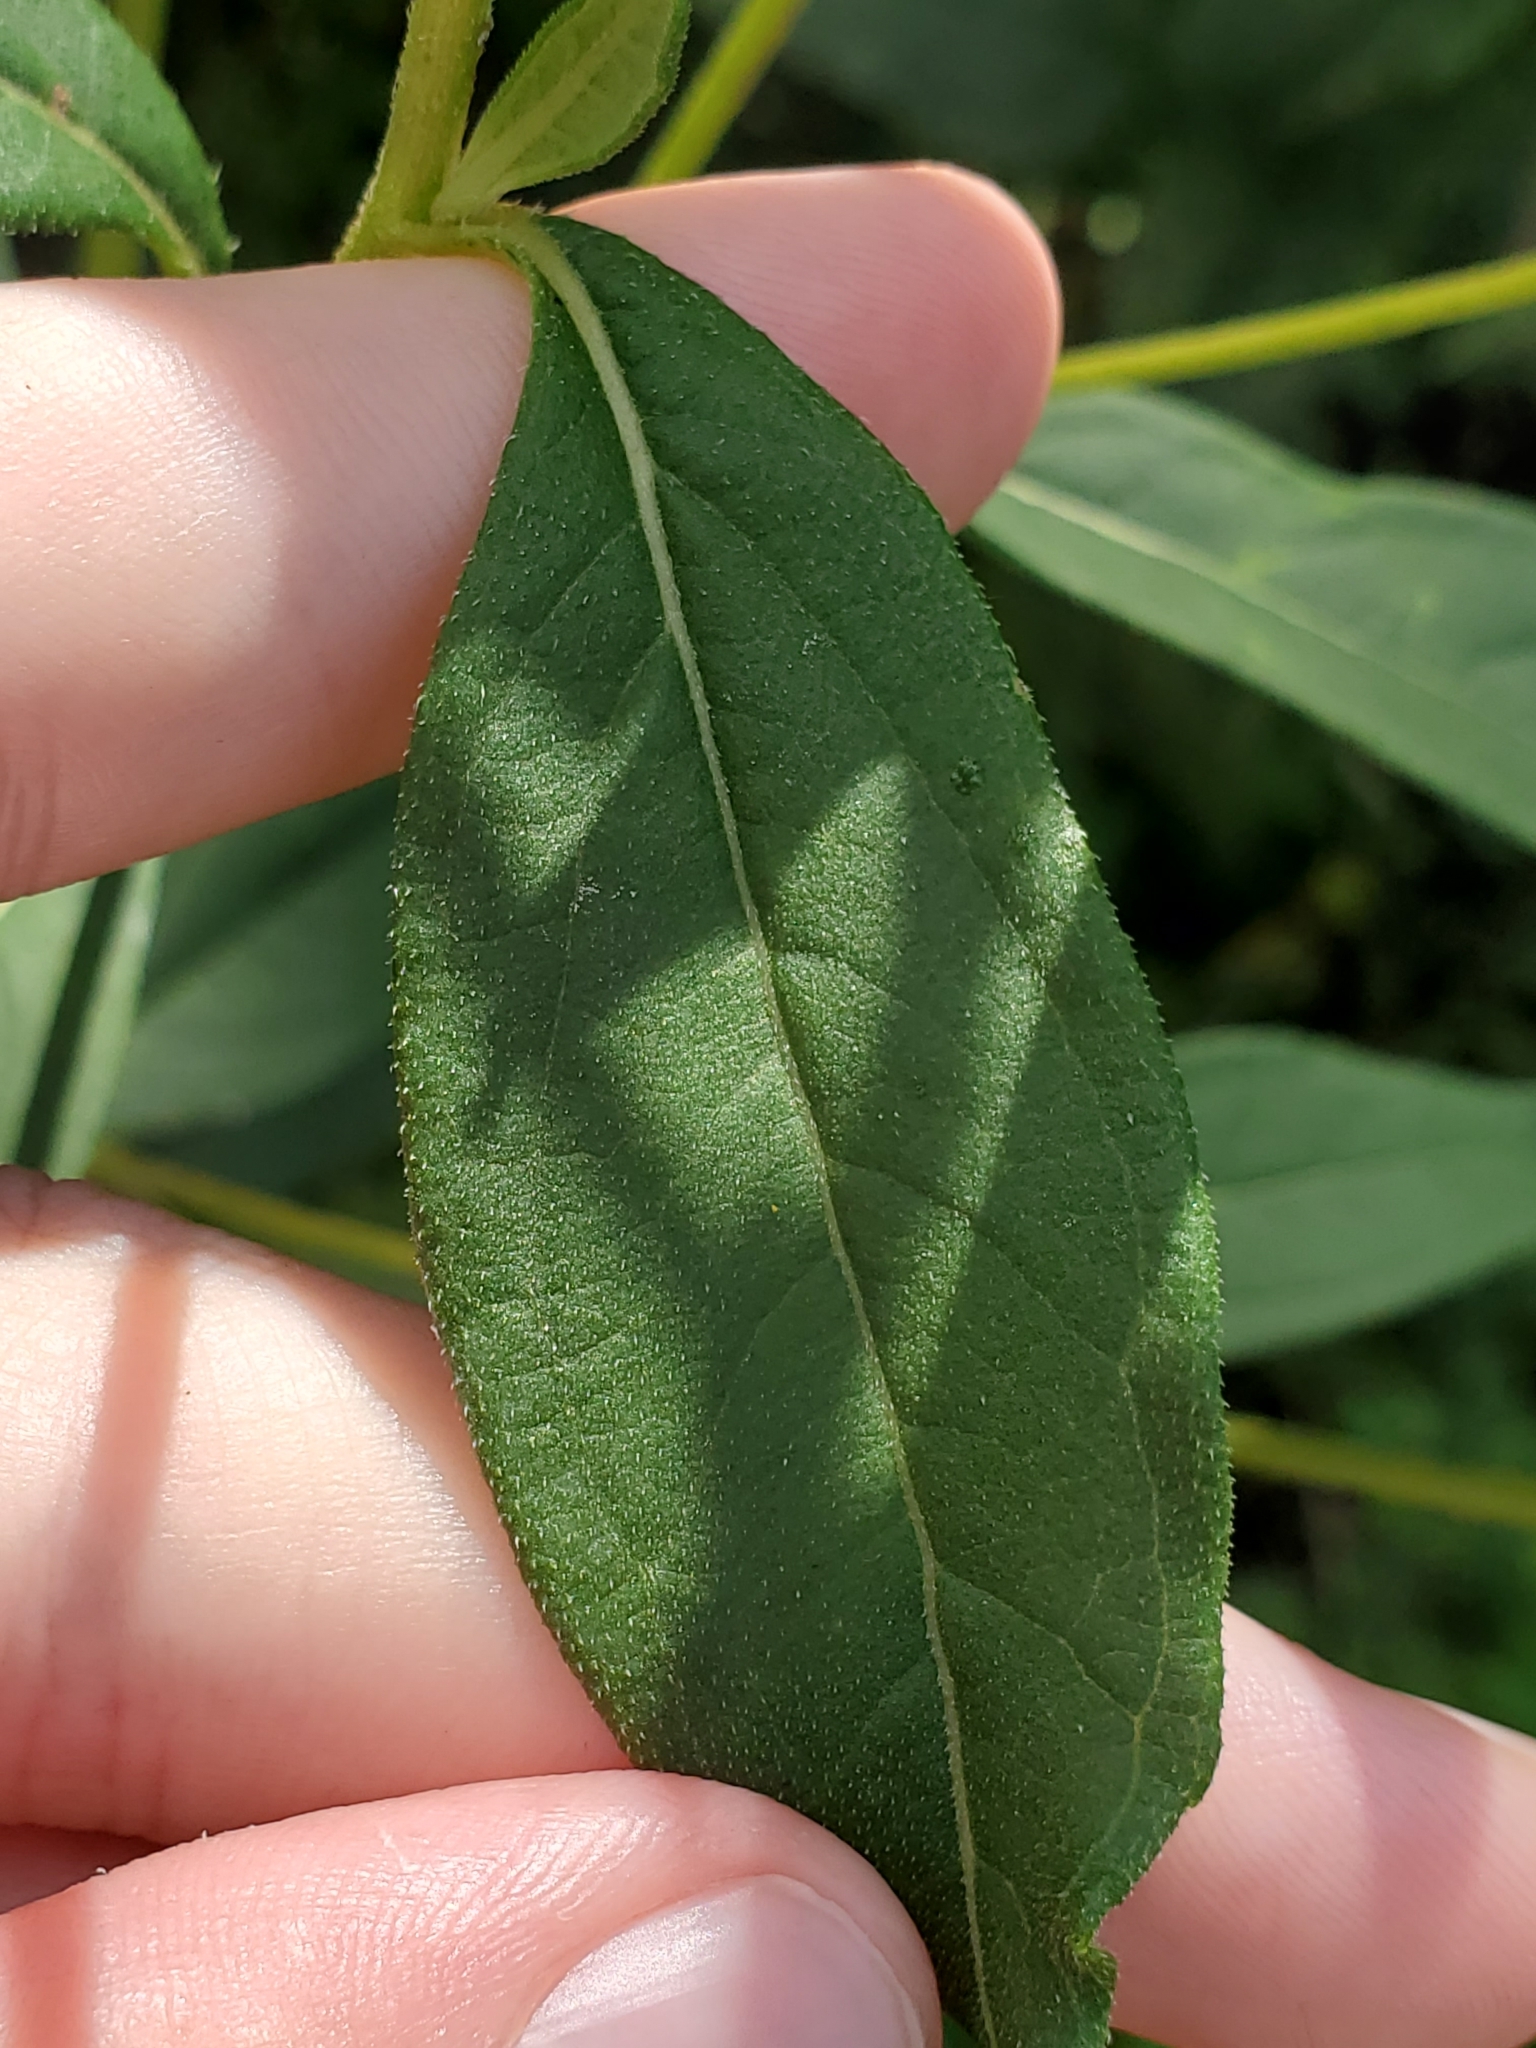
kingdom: Plantae
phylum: Tracheophyta
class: Magnoliopsida
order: Asterales
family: Asteraceae
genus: Helianthus
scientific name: Helianthus hirsutus
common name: Hairy sunflower
